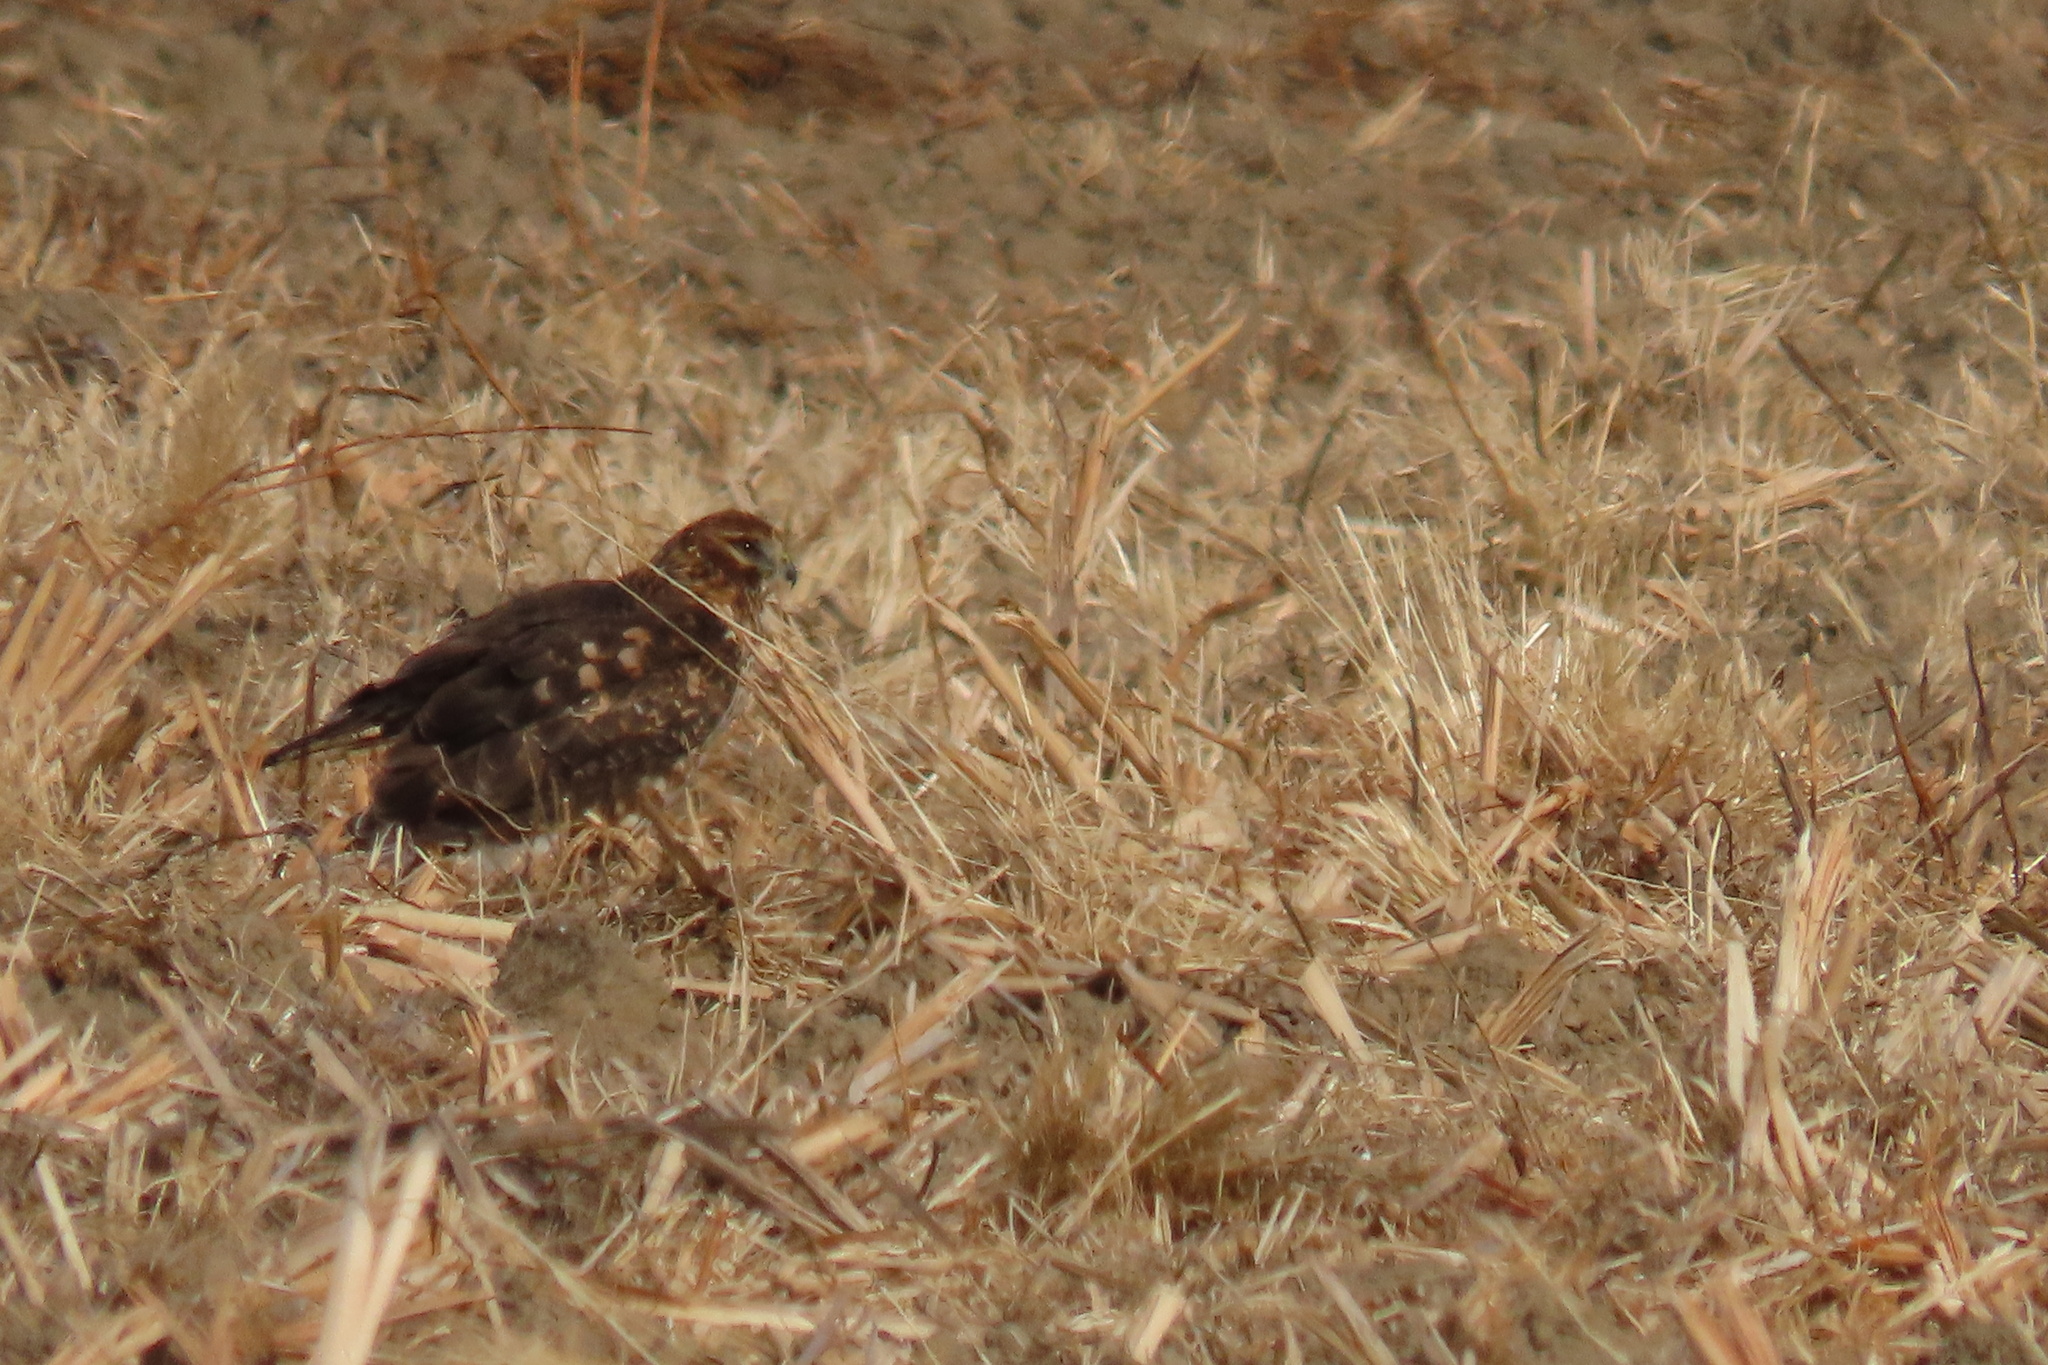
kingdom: Animalia
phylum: Chordata
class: Aves
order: Accipitriformes
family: Accipitridae
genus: Circus
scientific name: Circus cyaneus
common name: Hen harrier
